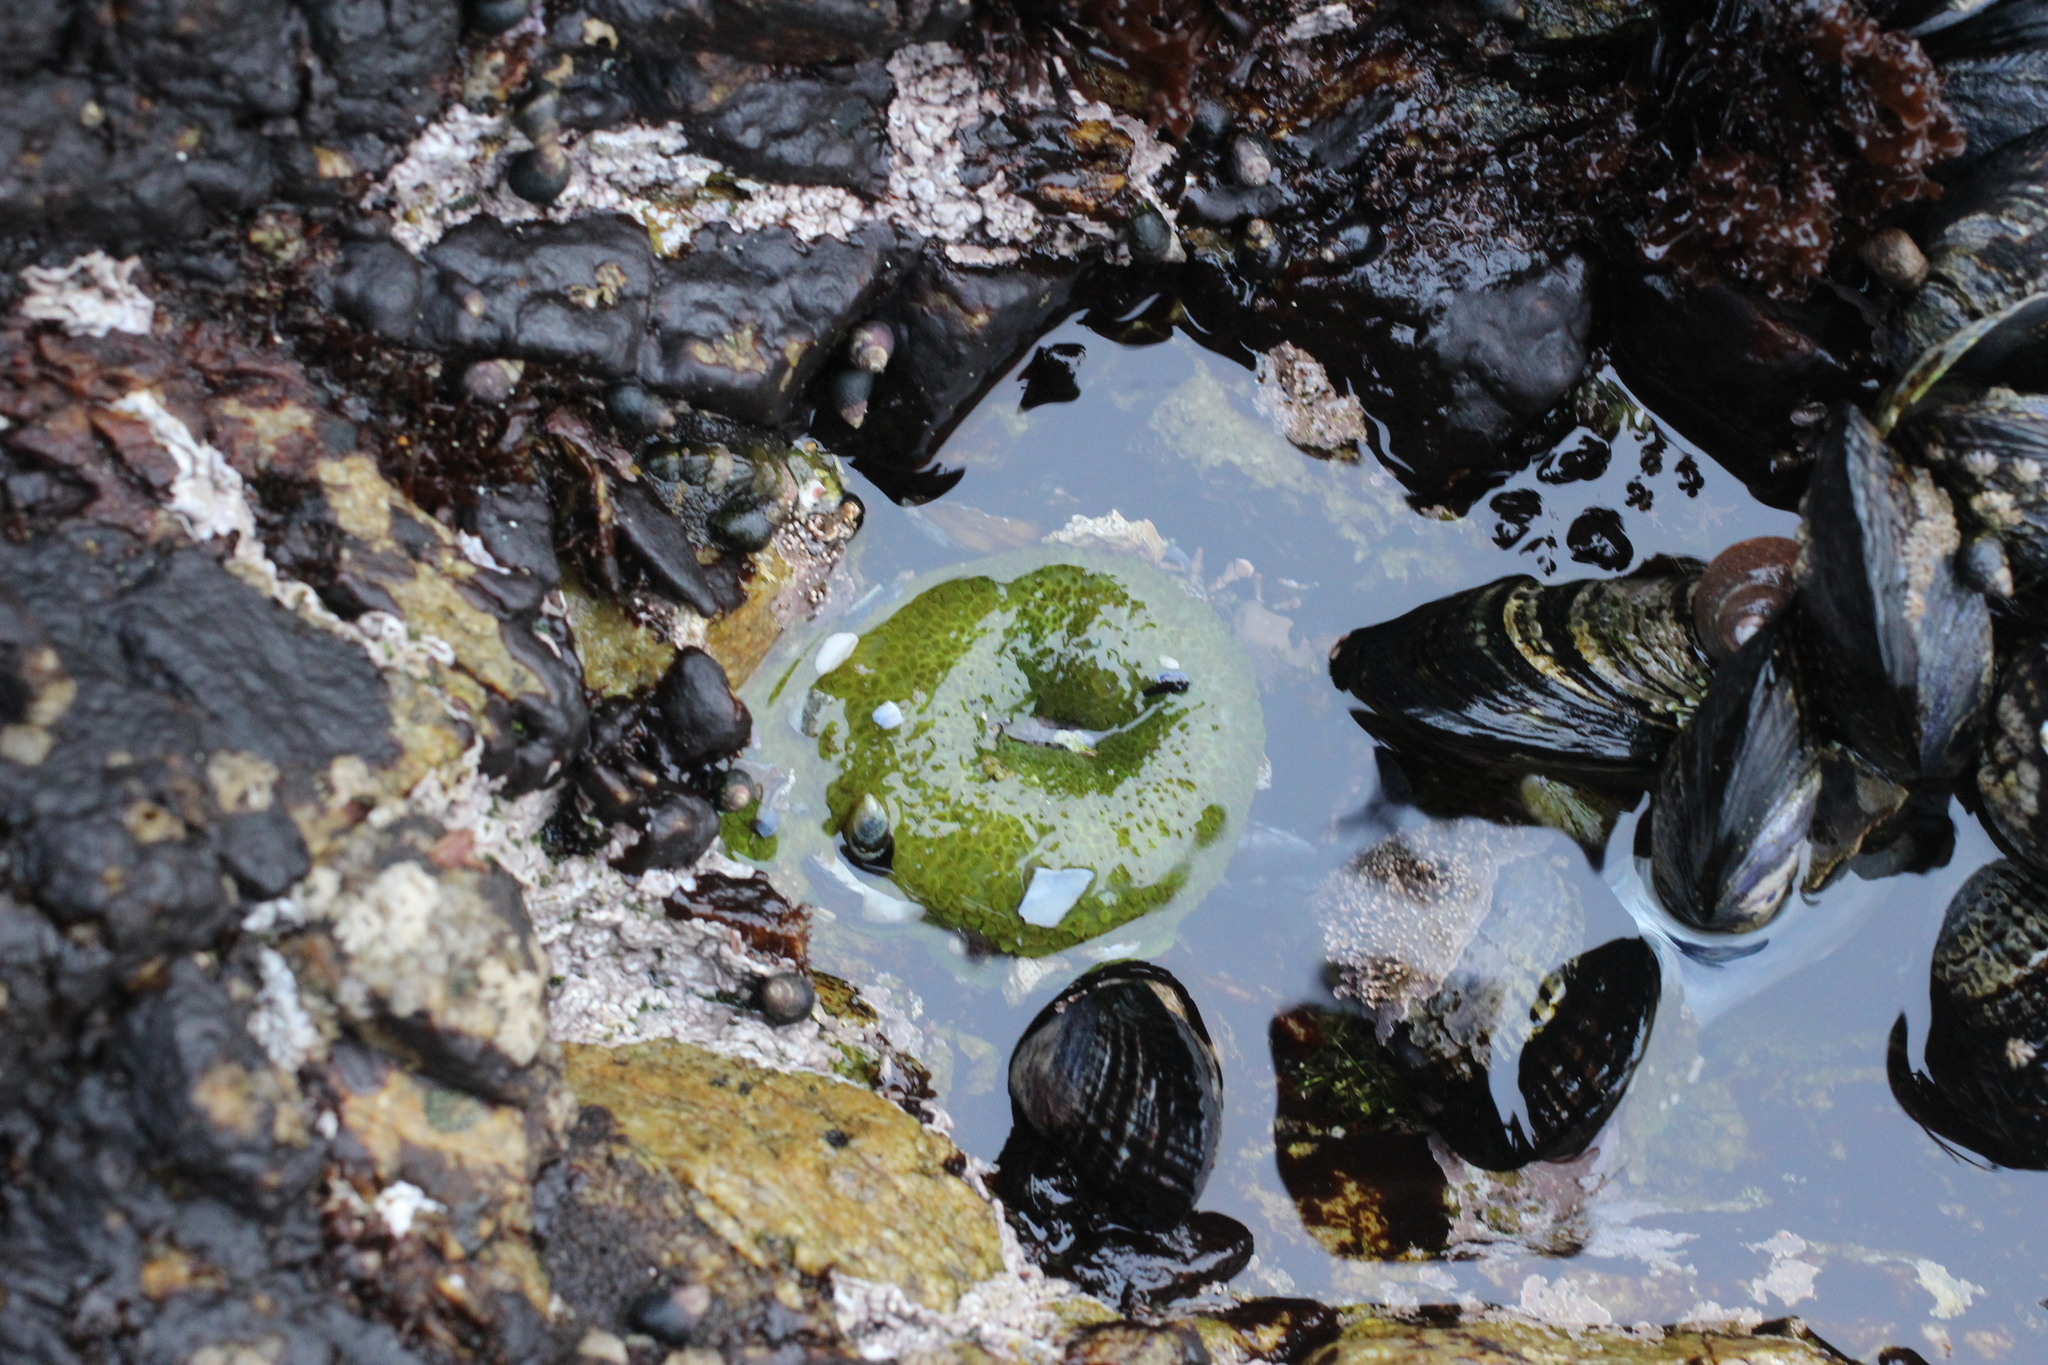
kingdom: Animalia
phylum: Cnidaria
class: Anthozoa
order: Actiniaria
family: Actiniidae
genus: Anthopleura
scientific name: Anthopleura elegantissima
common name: Clonal anemone
